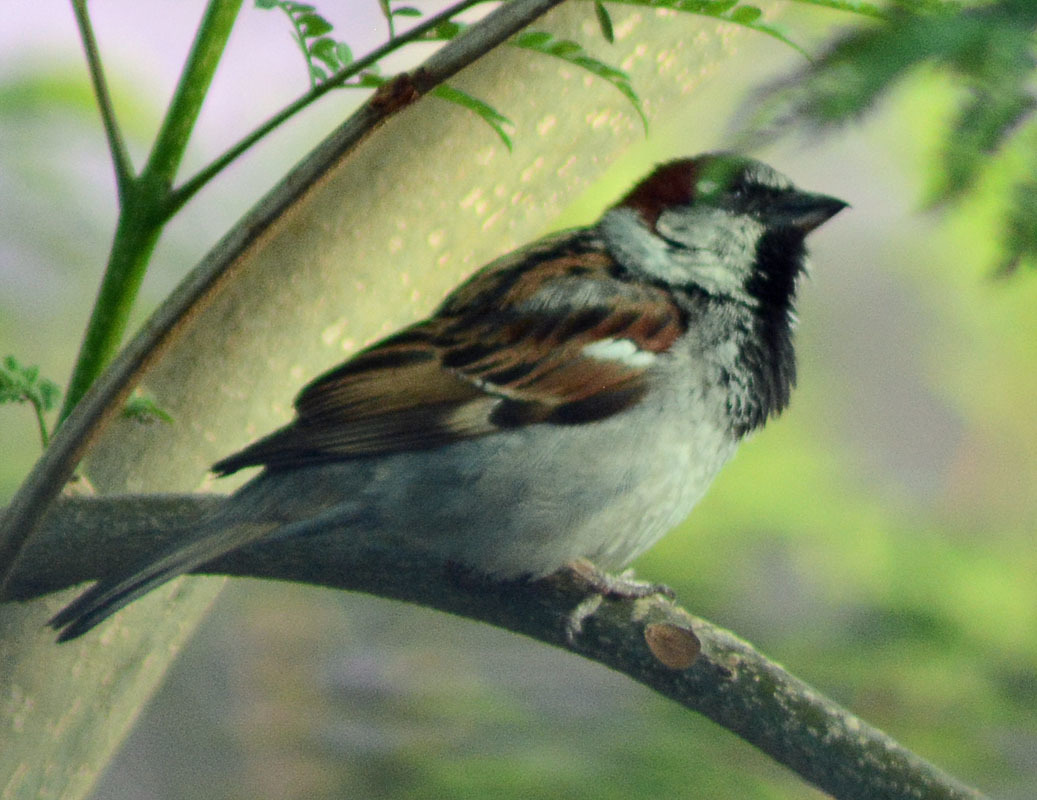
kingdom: Animalia
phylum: Chordata
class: Aves
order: Passeriformes
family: Passeridae
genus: Passer
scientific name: Passer domesticus
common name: House sparrow
